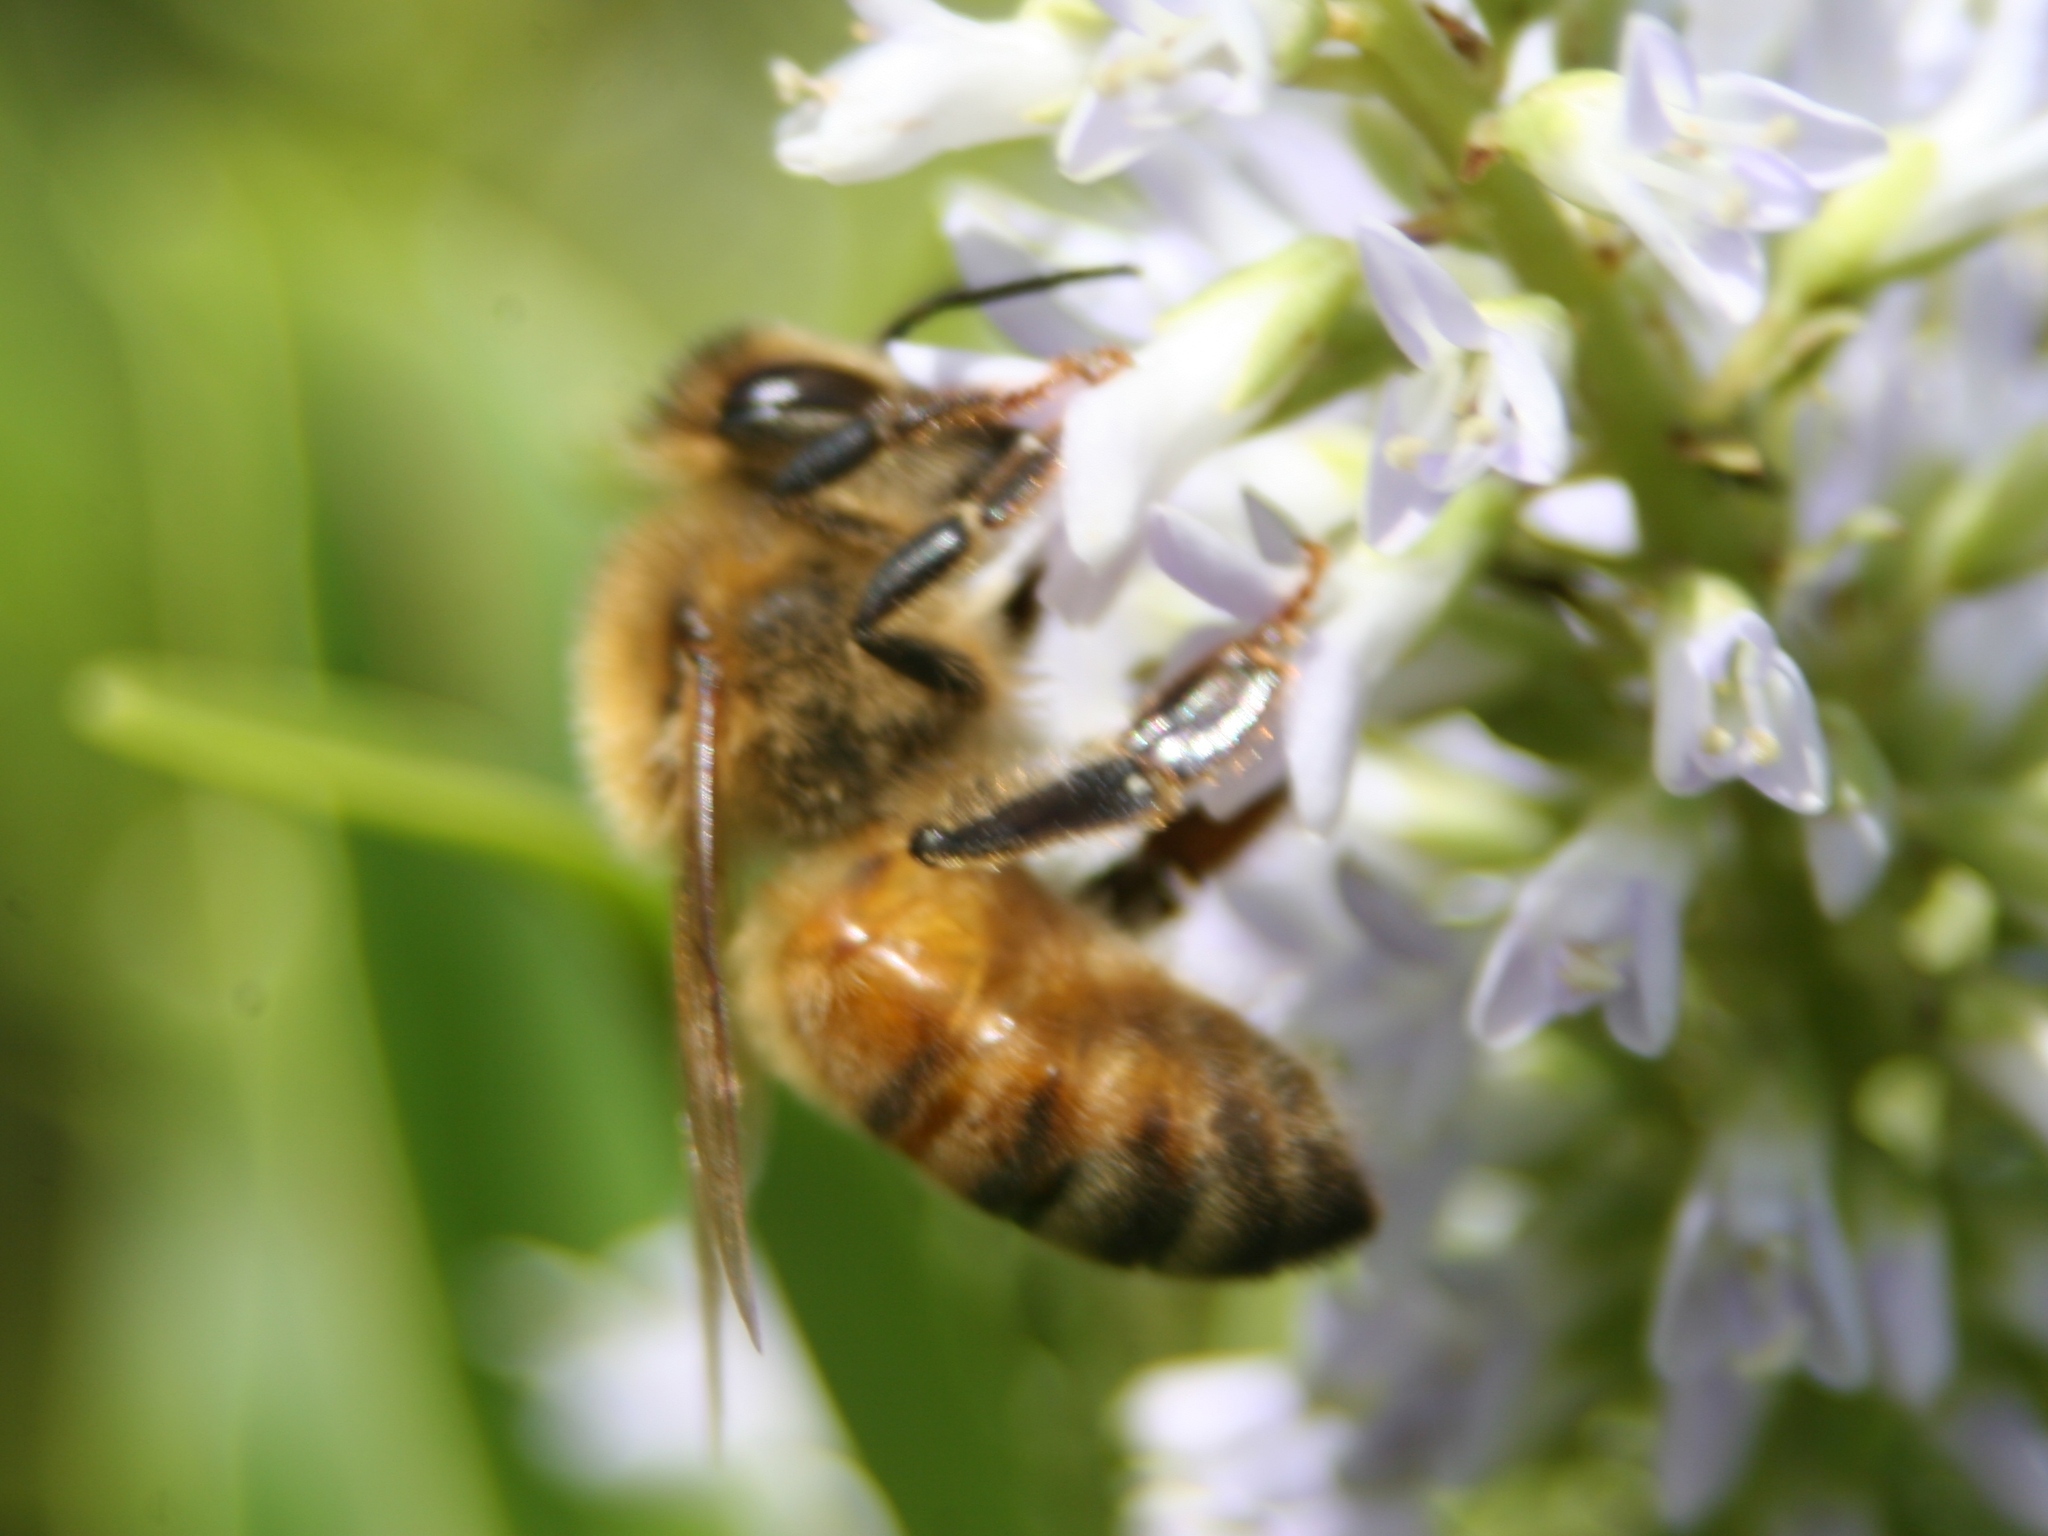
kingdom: Animalia
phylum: Arthropoda
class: Insecta
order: Hymenoptera
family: Apidae
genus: Apis
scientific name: Apis mellifera
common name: Honey bee
